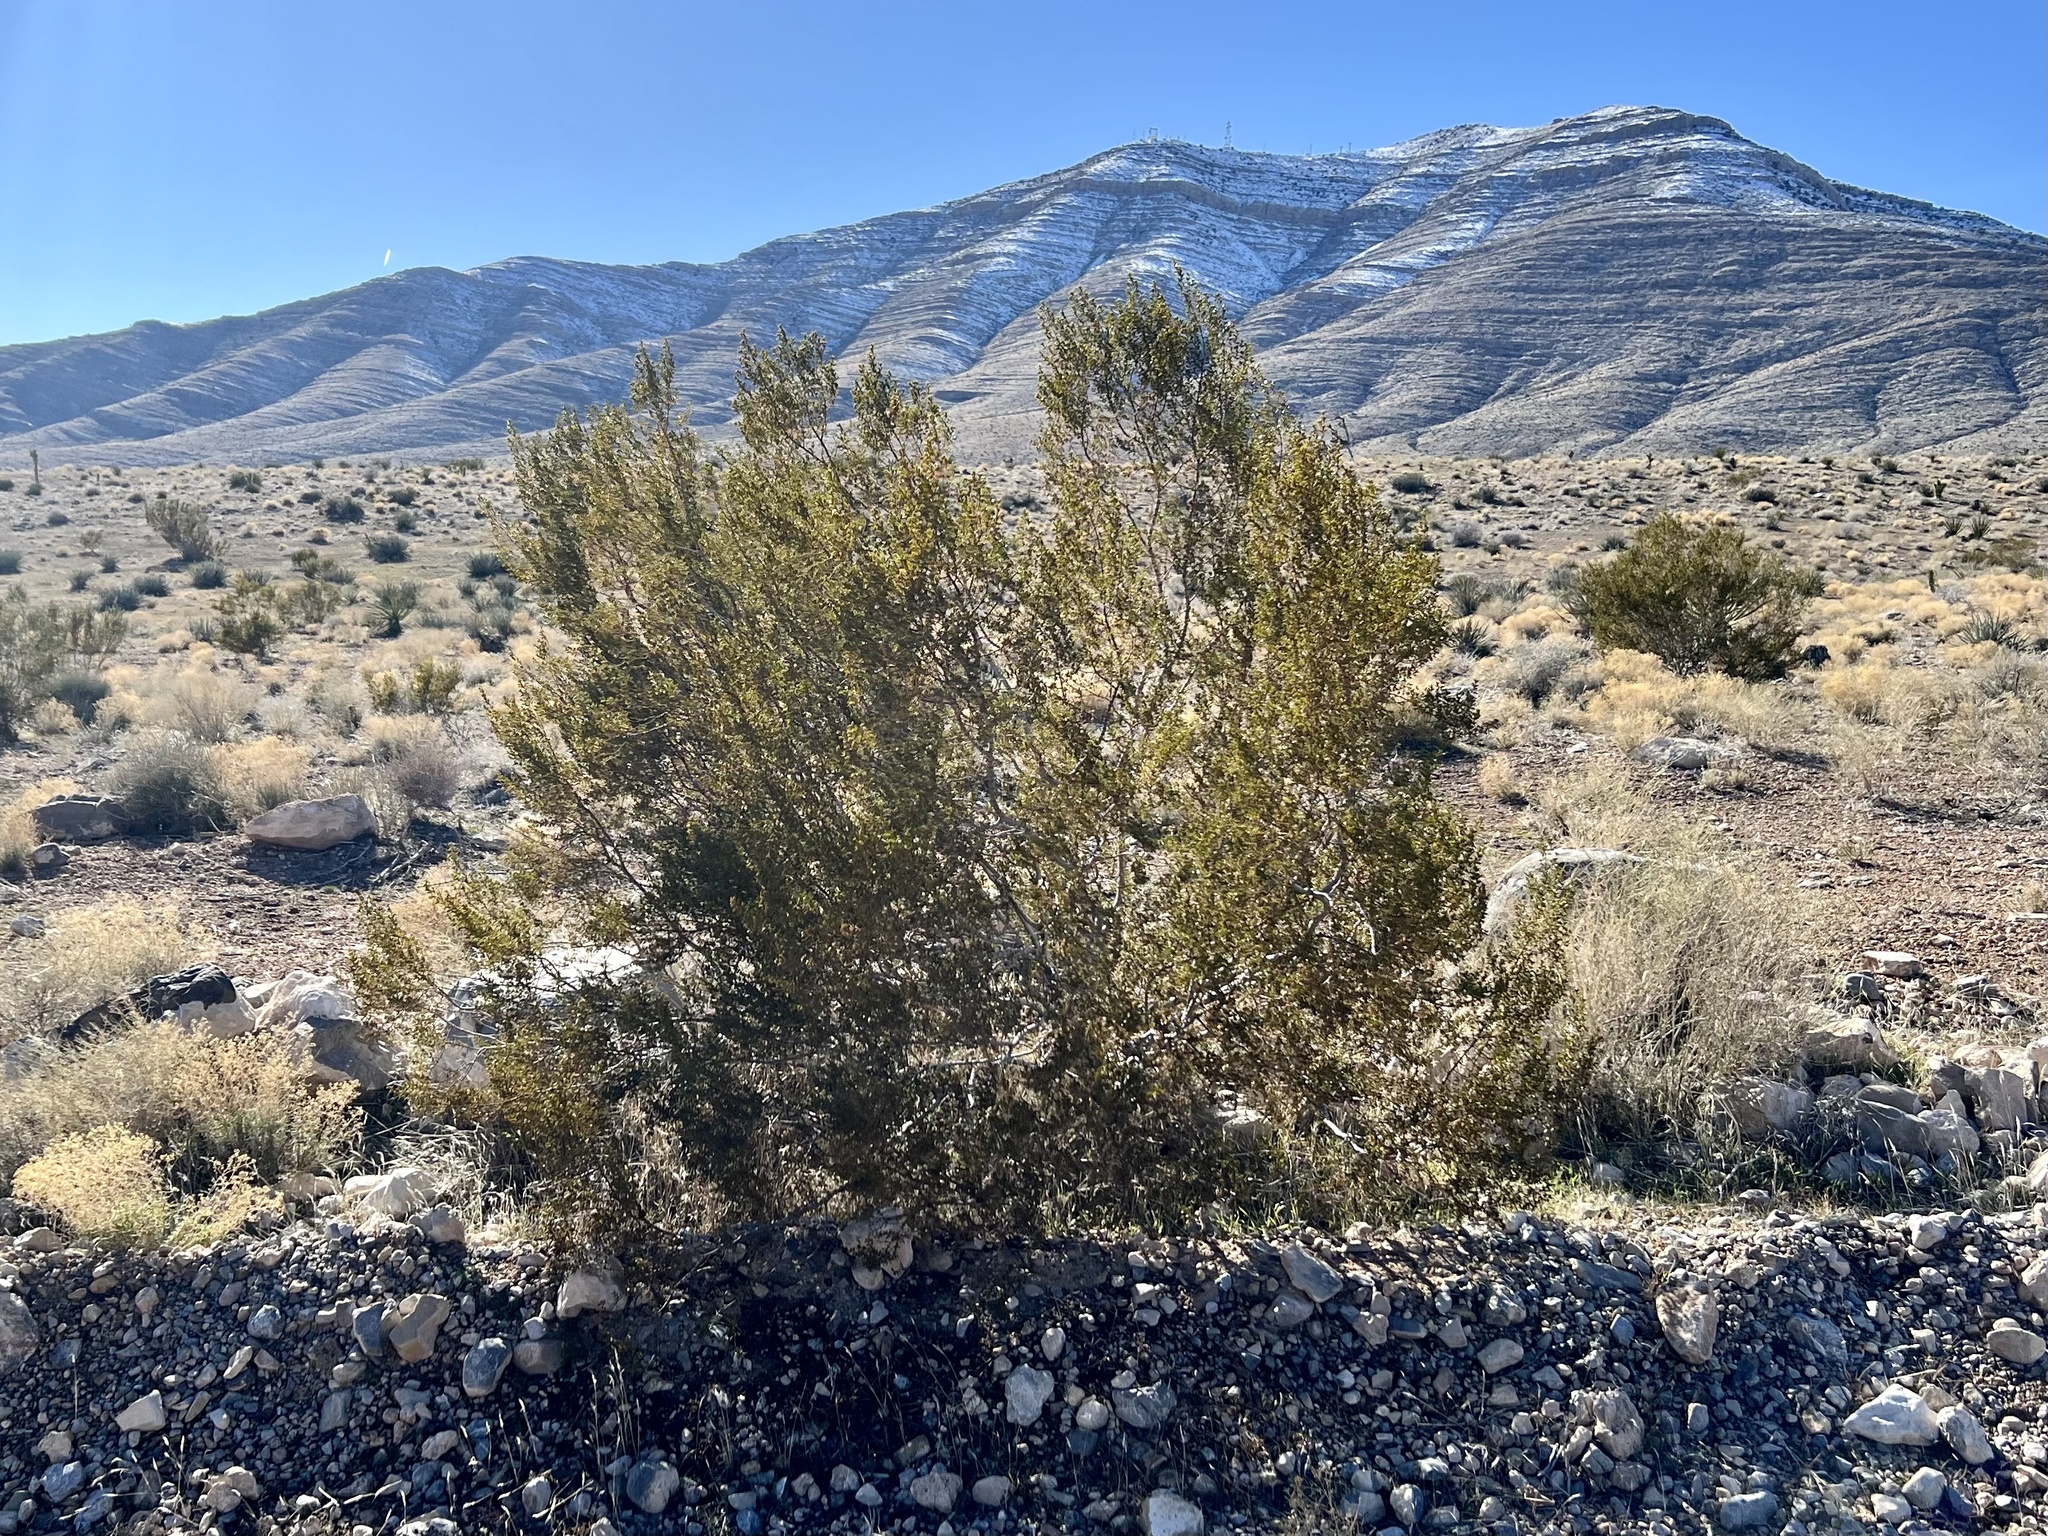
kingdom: Plantae
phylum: Tracheophyta
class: Magnoliopsida
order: Zygophyllales
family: Zygophyllaceae
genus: Larrea
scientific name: Larrea tridentata
